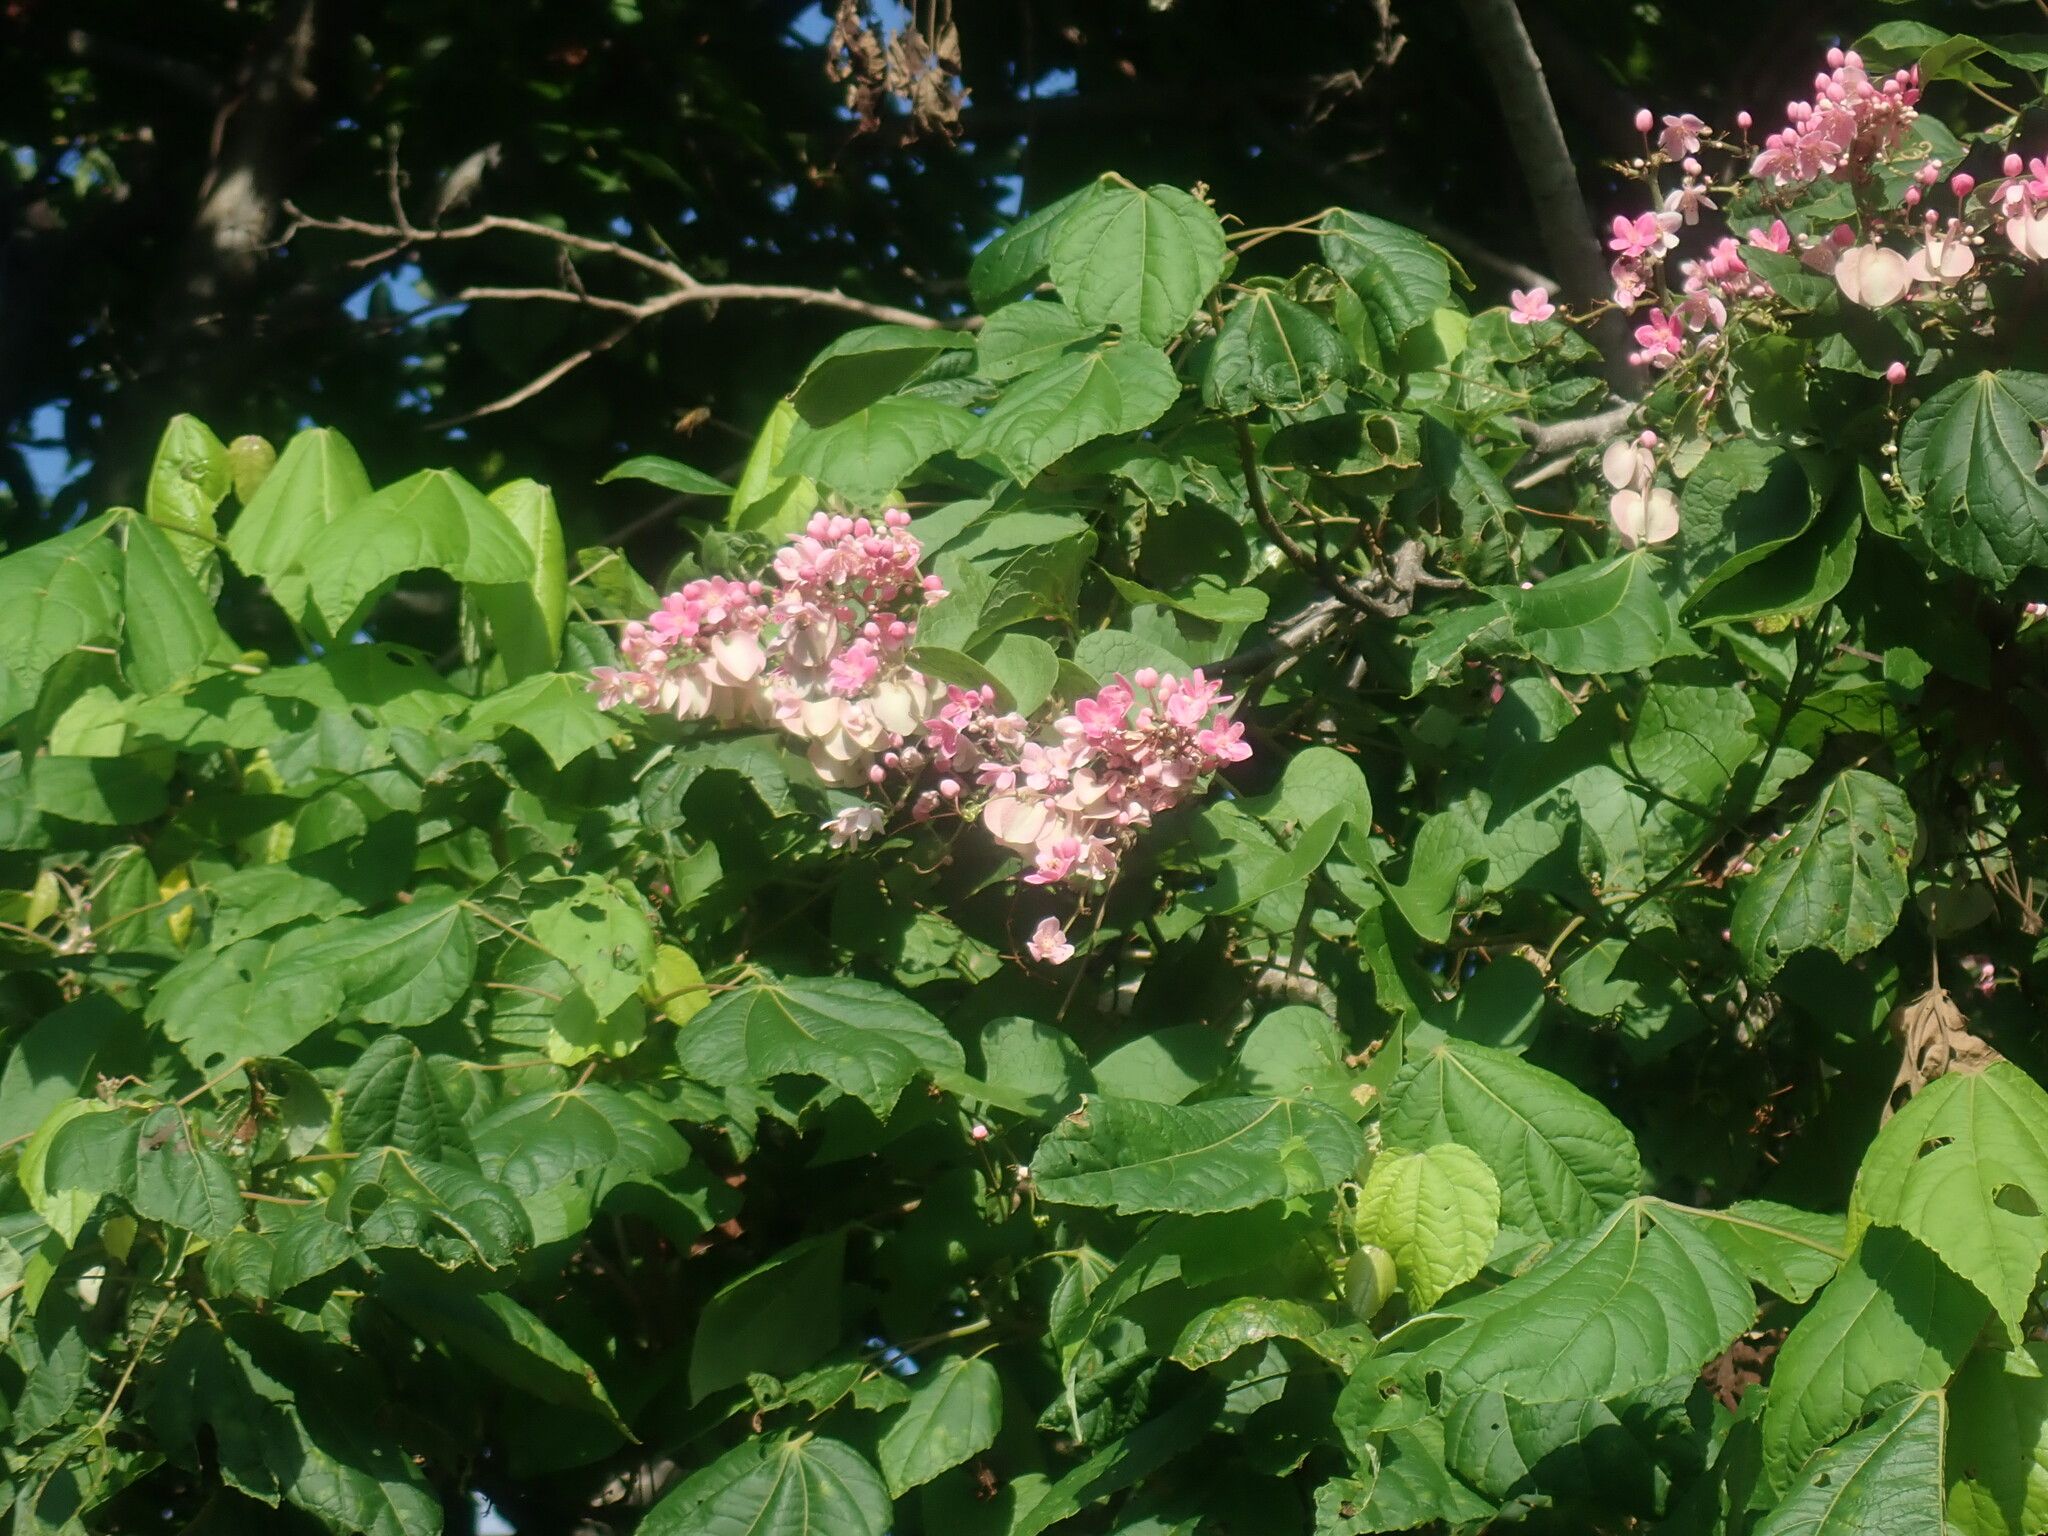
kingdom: Plantae
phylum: Tracheophyta
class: Magnoliopsida
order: Caryophyllales
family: Polygonaceae
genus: Antigonon
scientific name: Antigonon leptopus
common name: Coral vine
